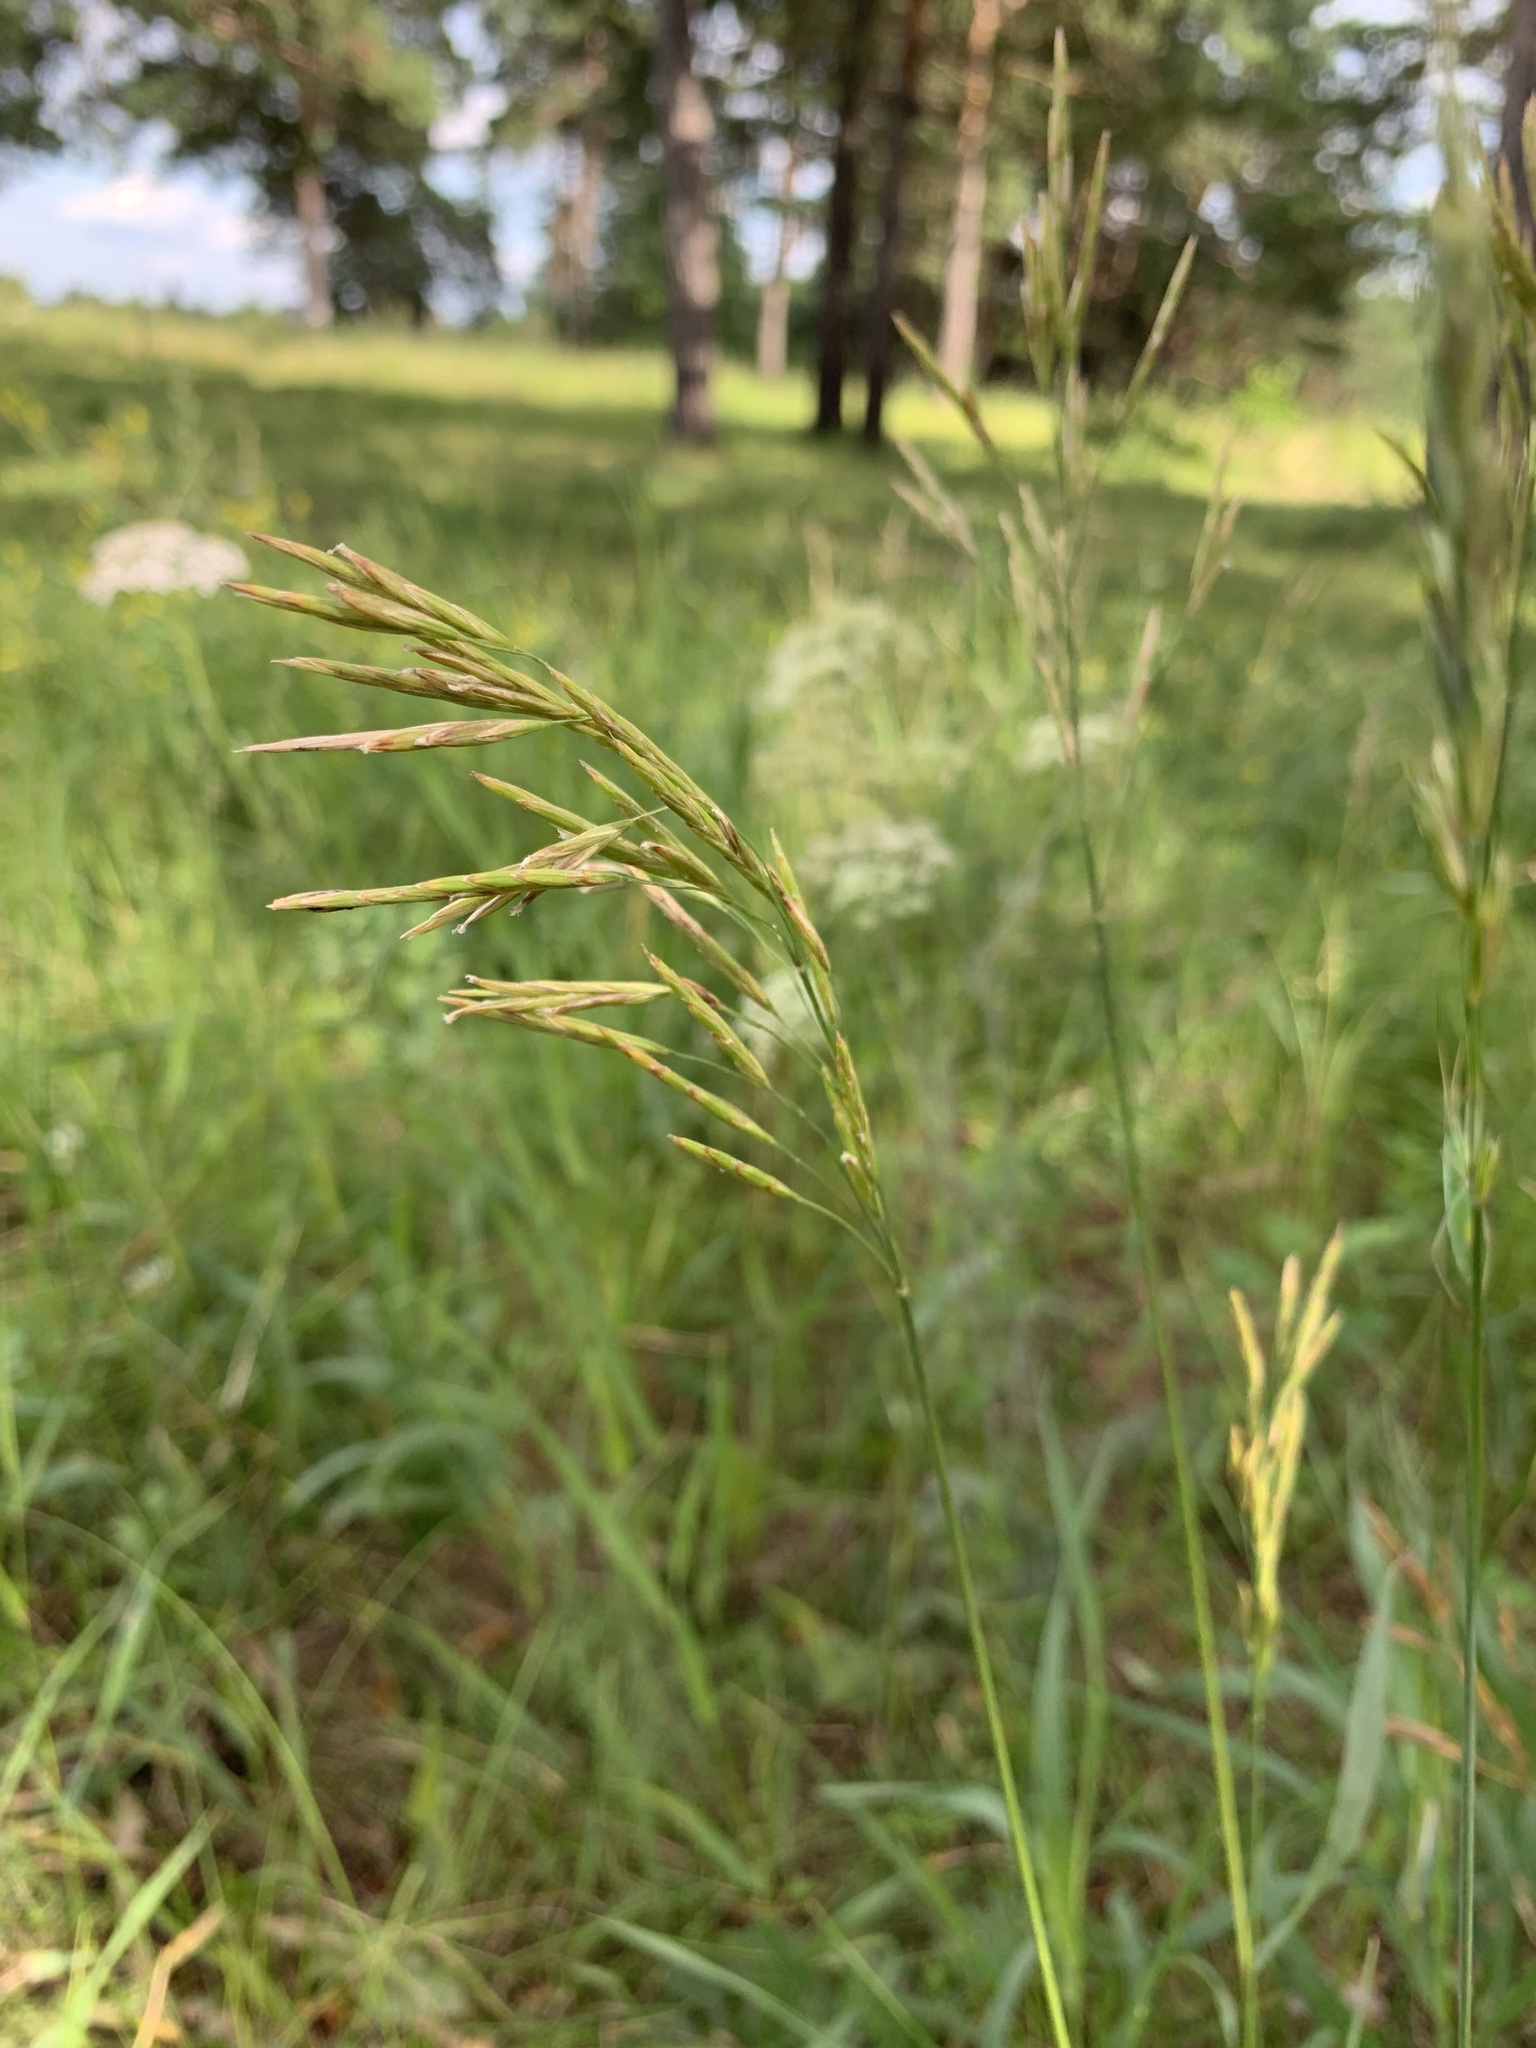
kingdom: Plantae
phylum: Tracheophyta
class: Liliopsida
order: Poales
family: Poaceae
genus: Bromus
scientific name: Bromus inermis
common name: Smooth brome
